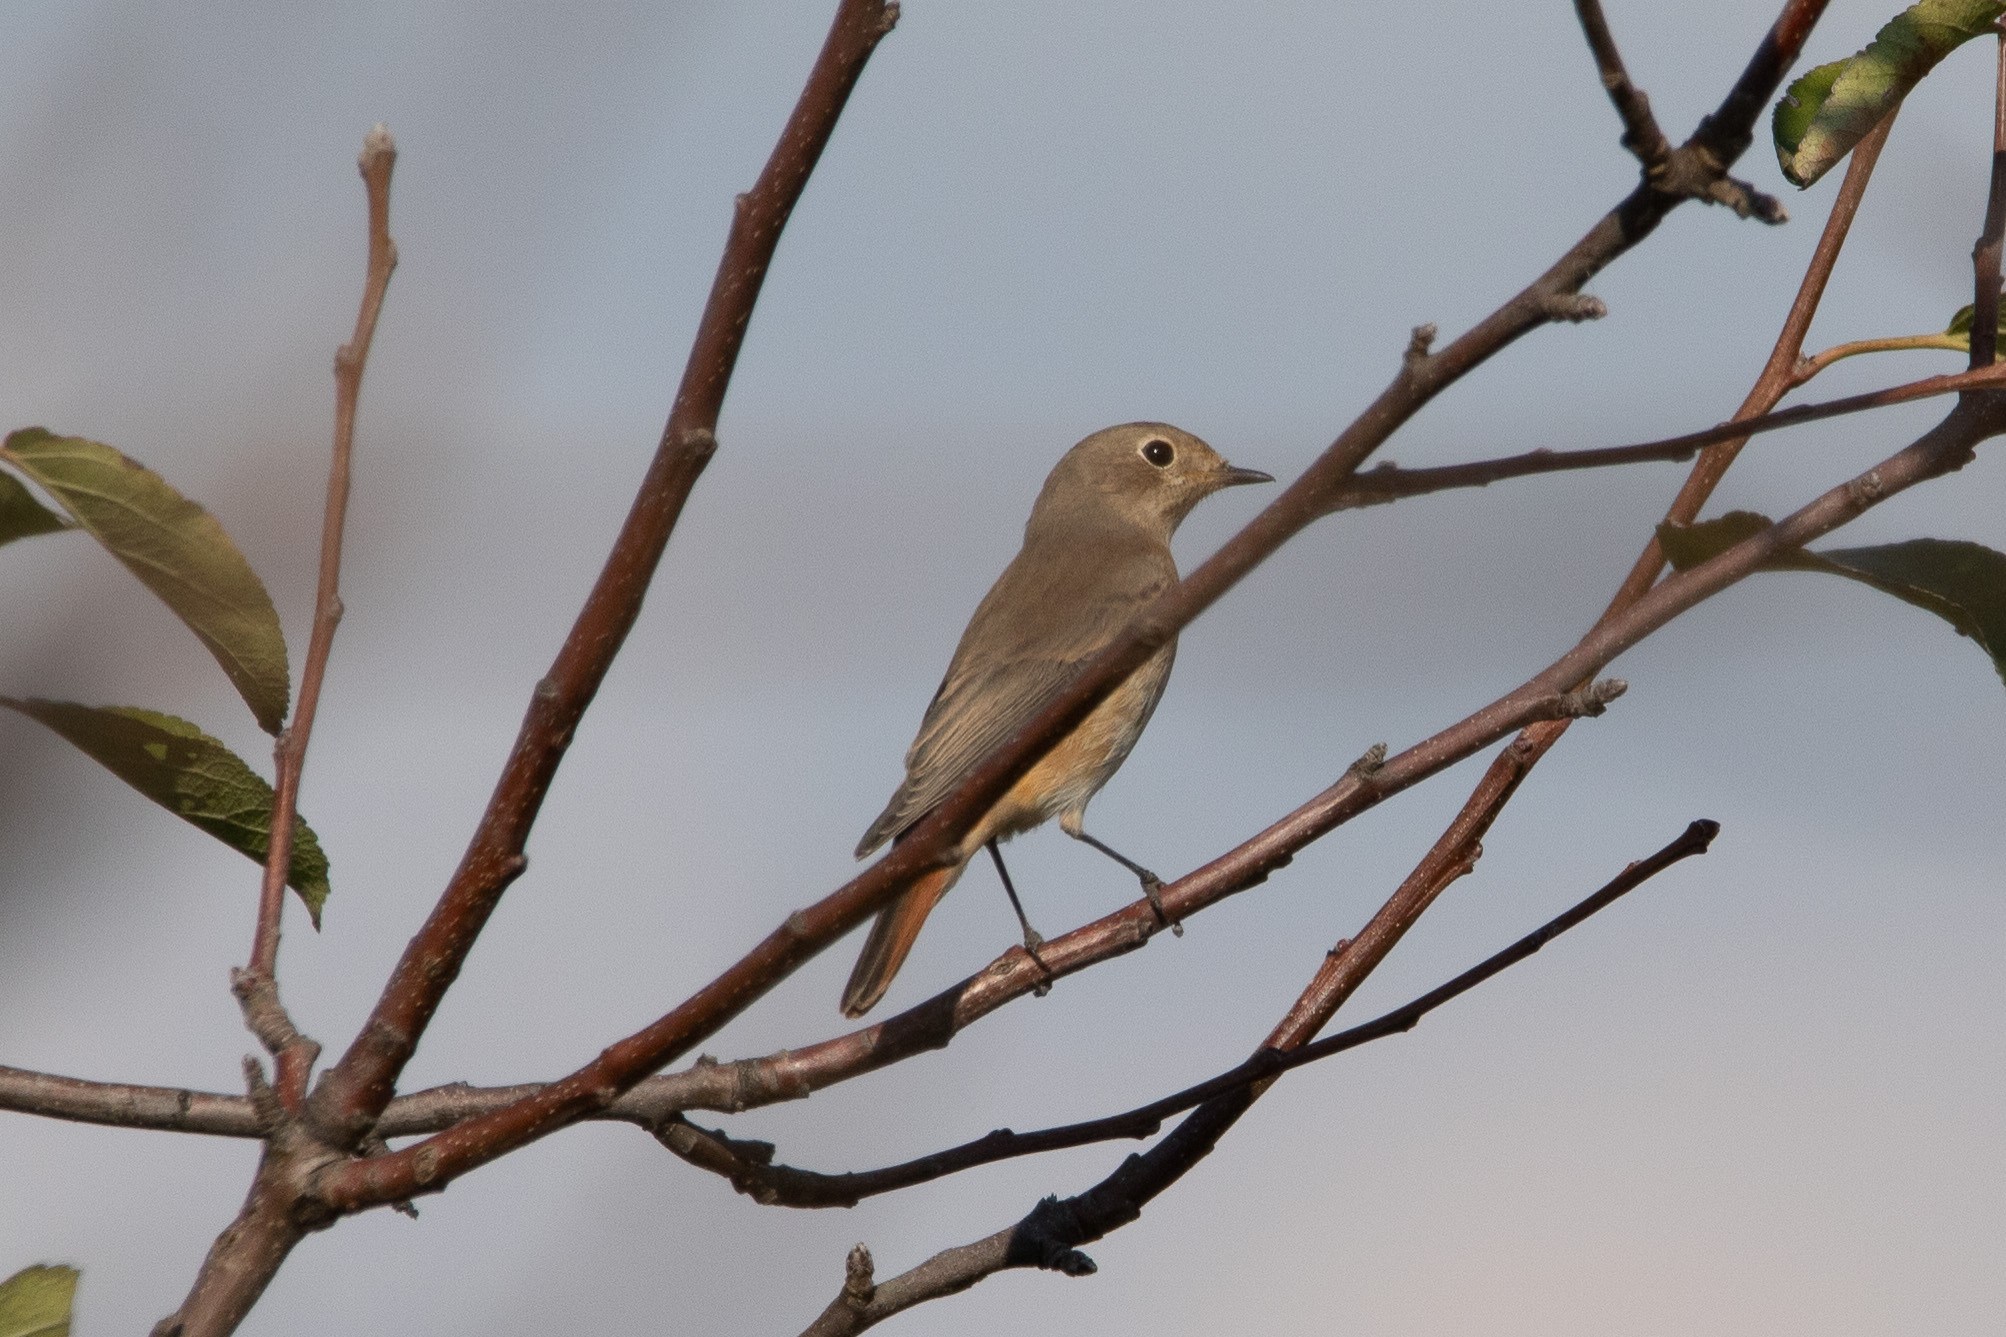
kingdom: Animalia
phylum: Chordata
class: Aves
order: Passeriformes
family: Muscicapidae
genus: Phoenicurus
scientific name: Phoenicurus phoenicurus
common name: Common redstart
